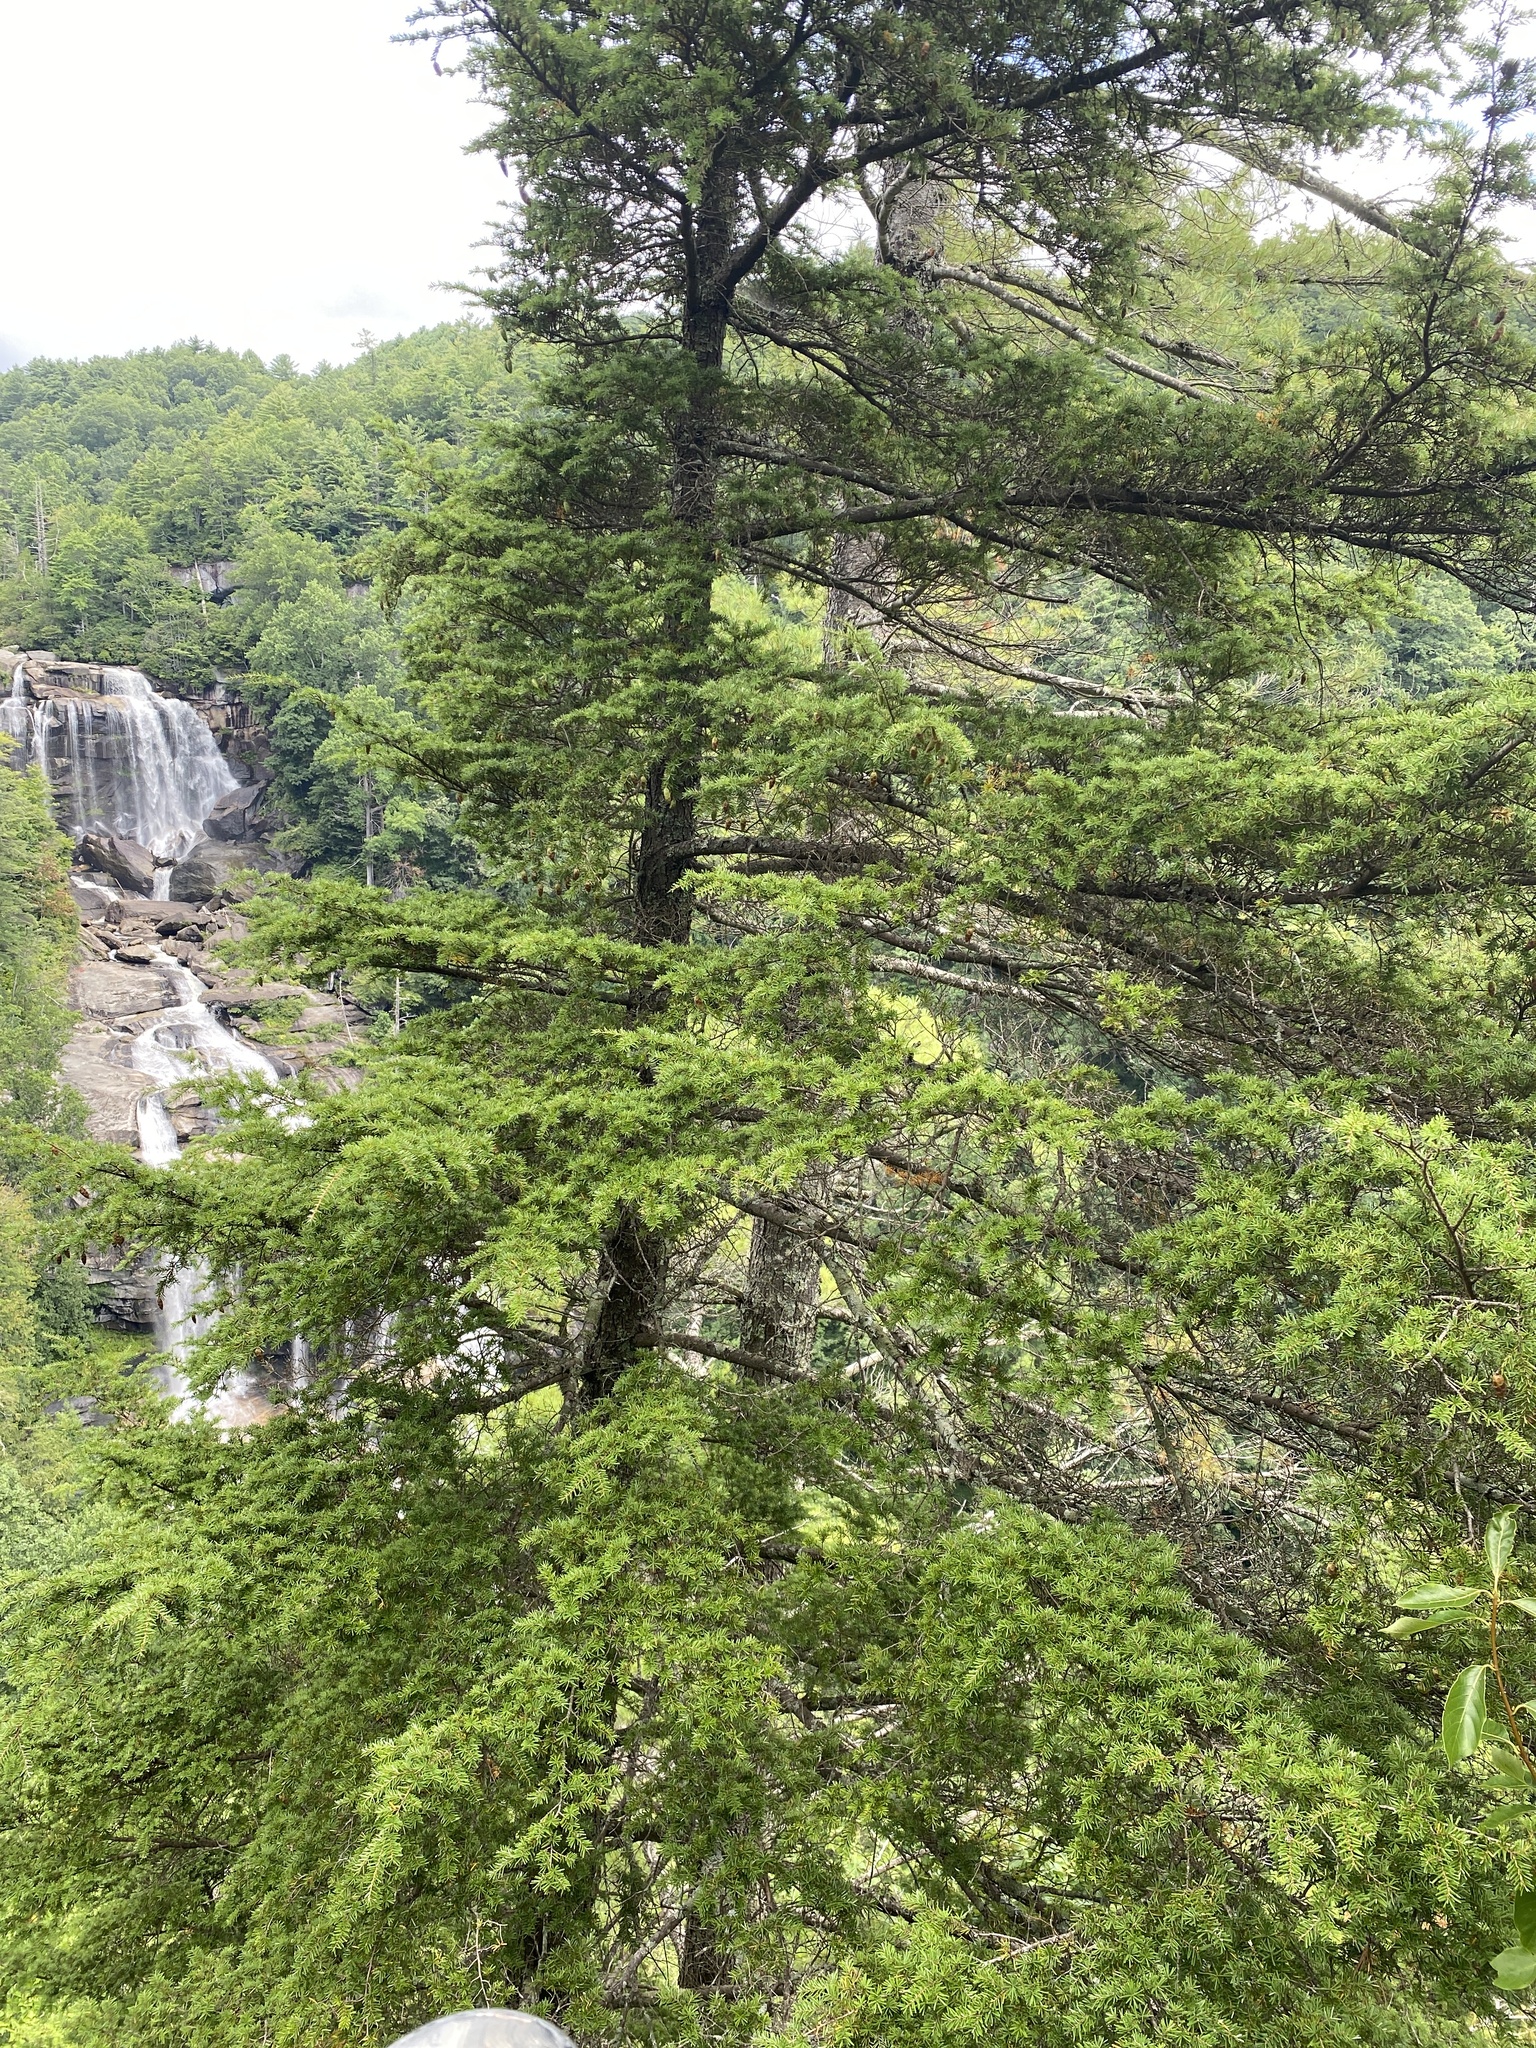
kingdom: Plantae
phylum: Tracheophyta
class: Pinopsida
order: Pinales
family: Pinaceae
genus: Tsuga
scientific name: Tsuga caroliniana
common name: Carolina hemlock
